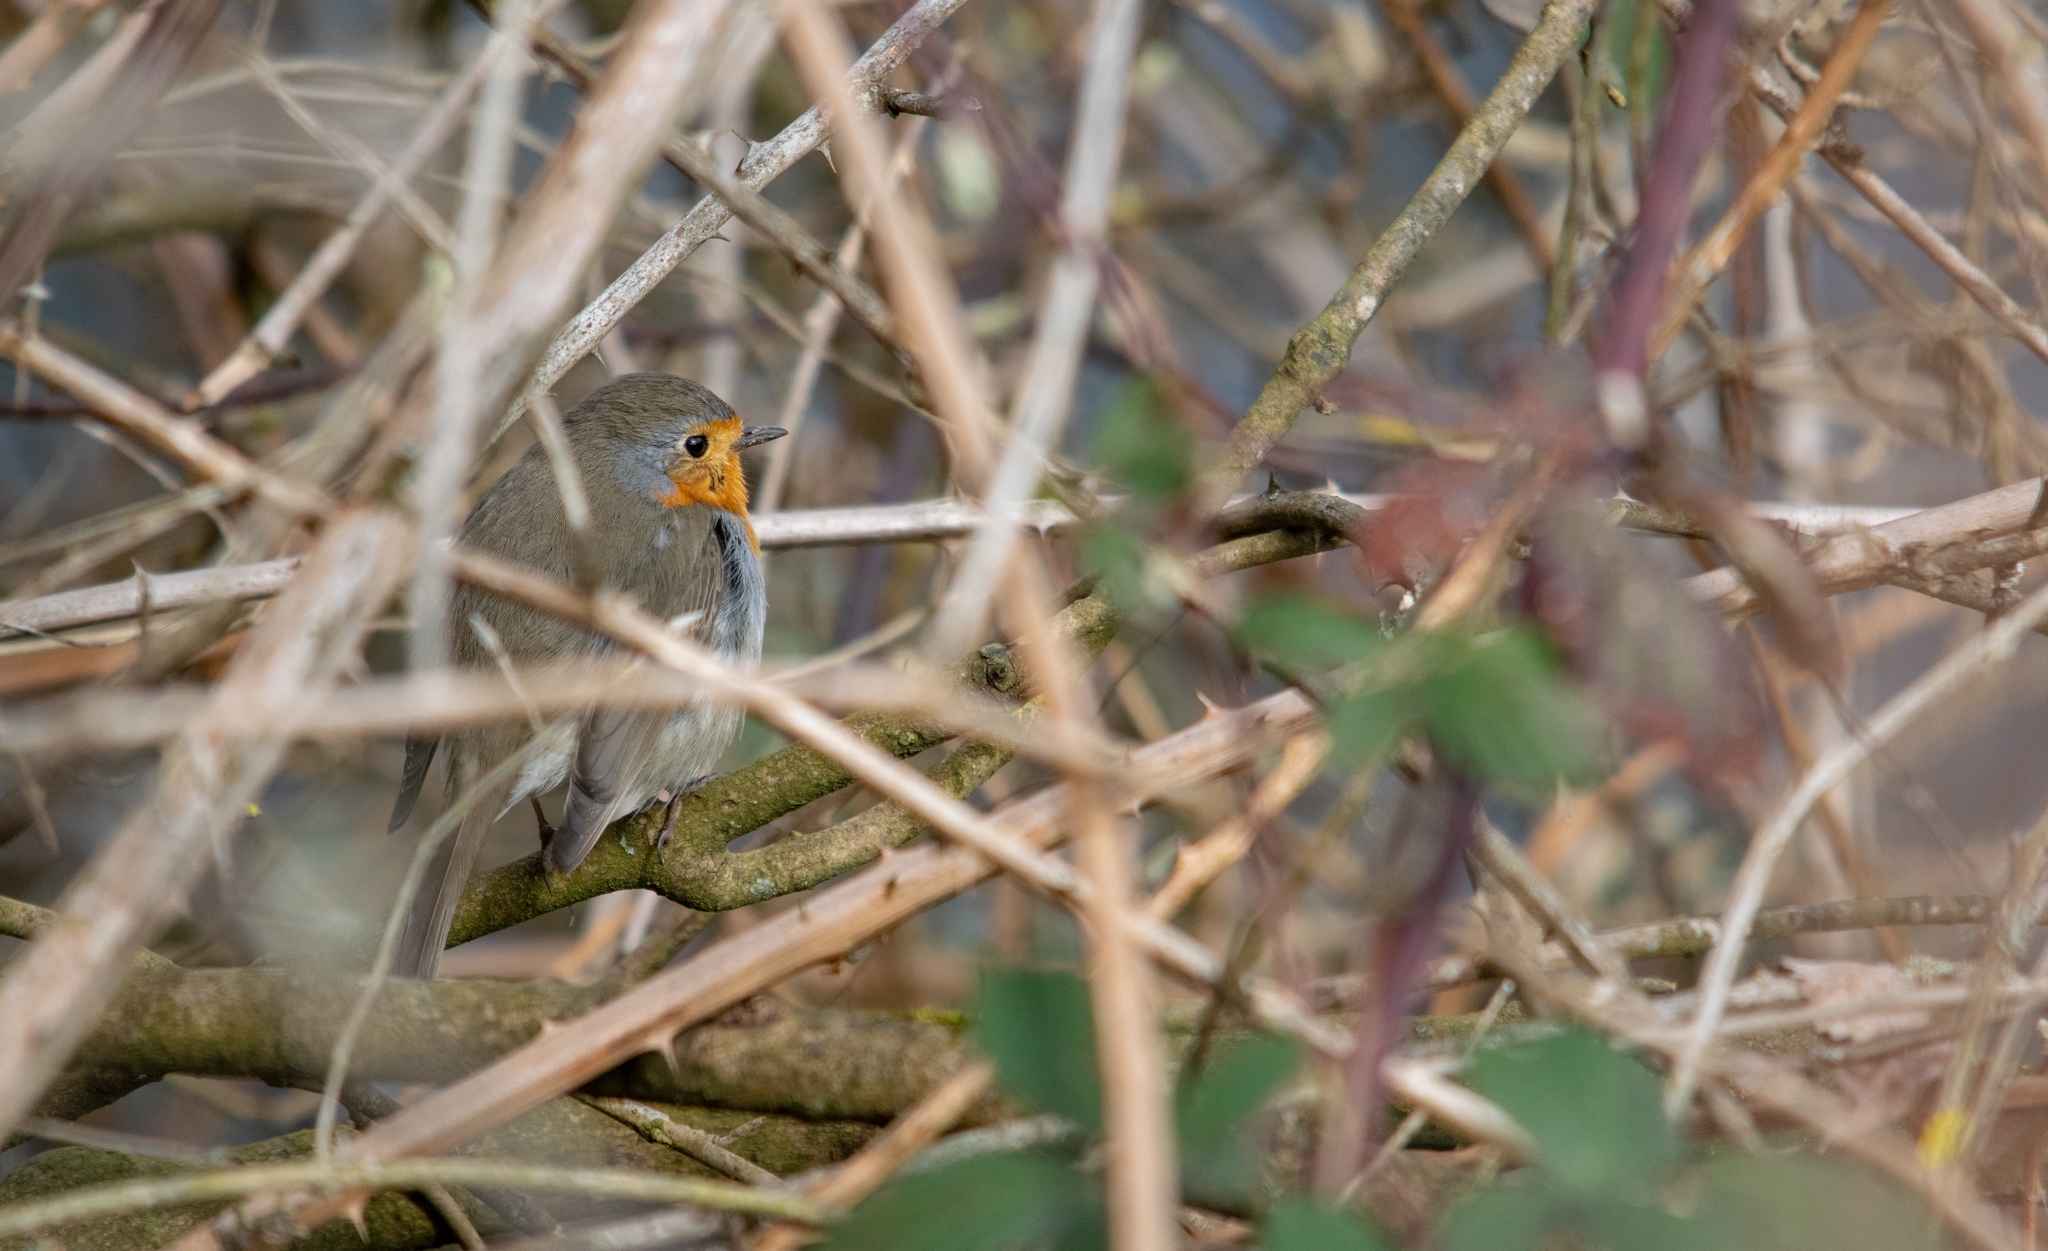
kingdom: Animalia
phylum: Chordata
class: Aves
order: Passeriformes
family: Muscicapidae
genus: Erithacus
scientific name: Erithacus rubecula
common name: European robin
